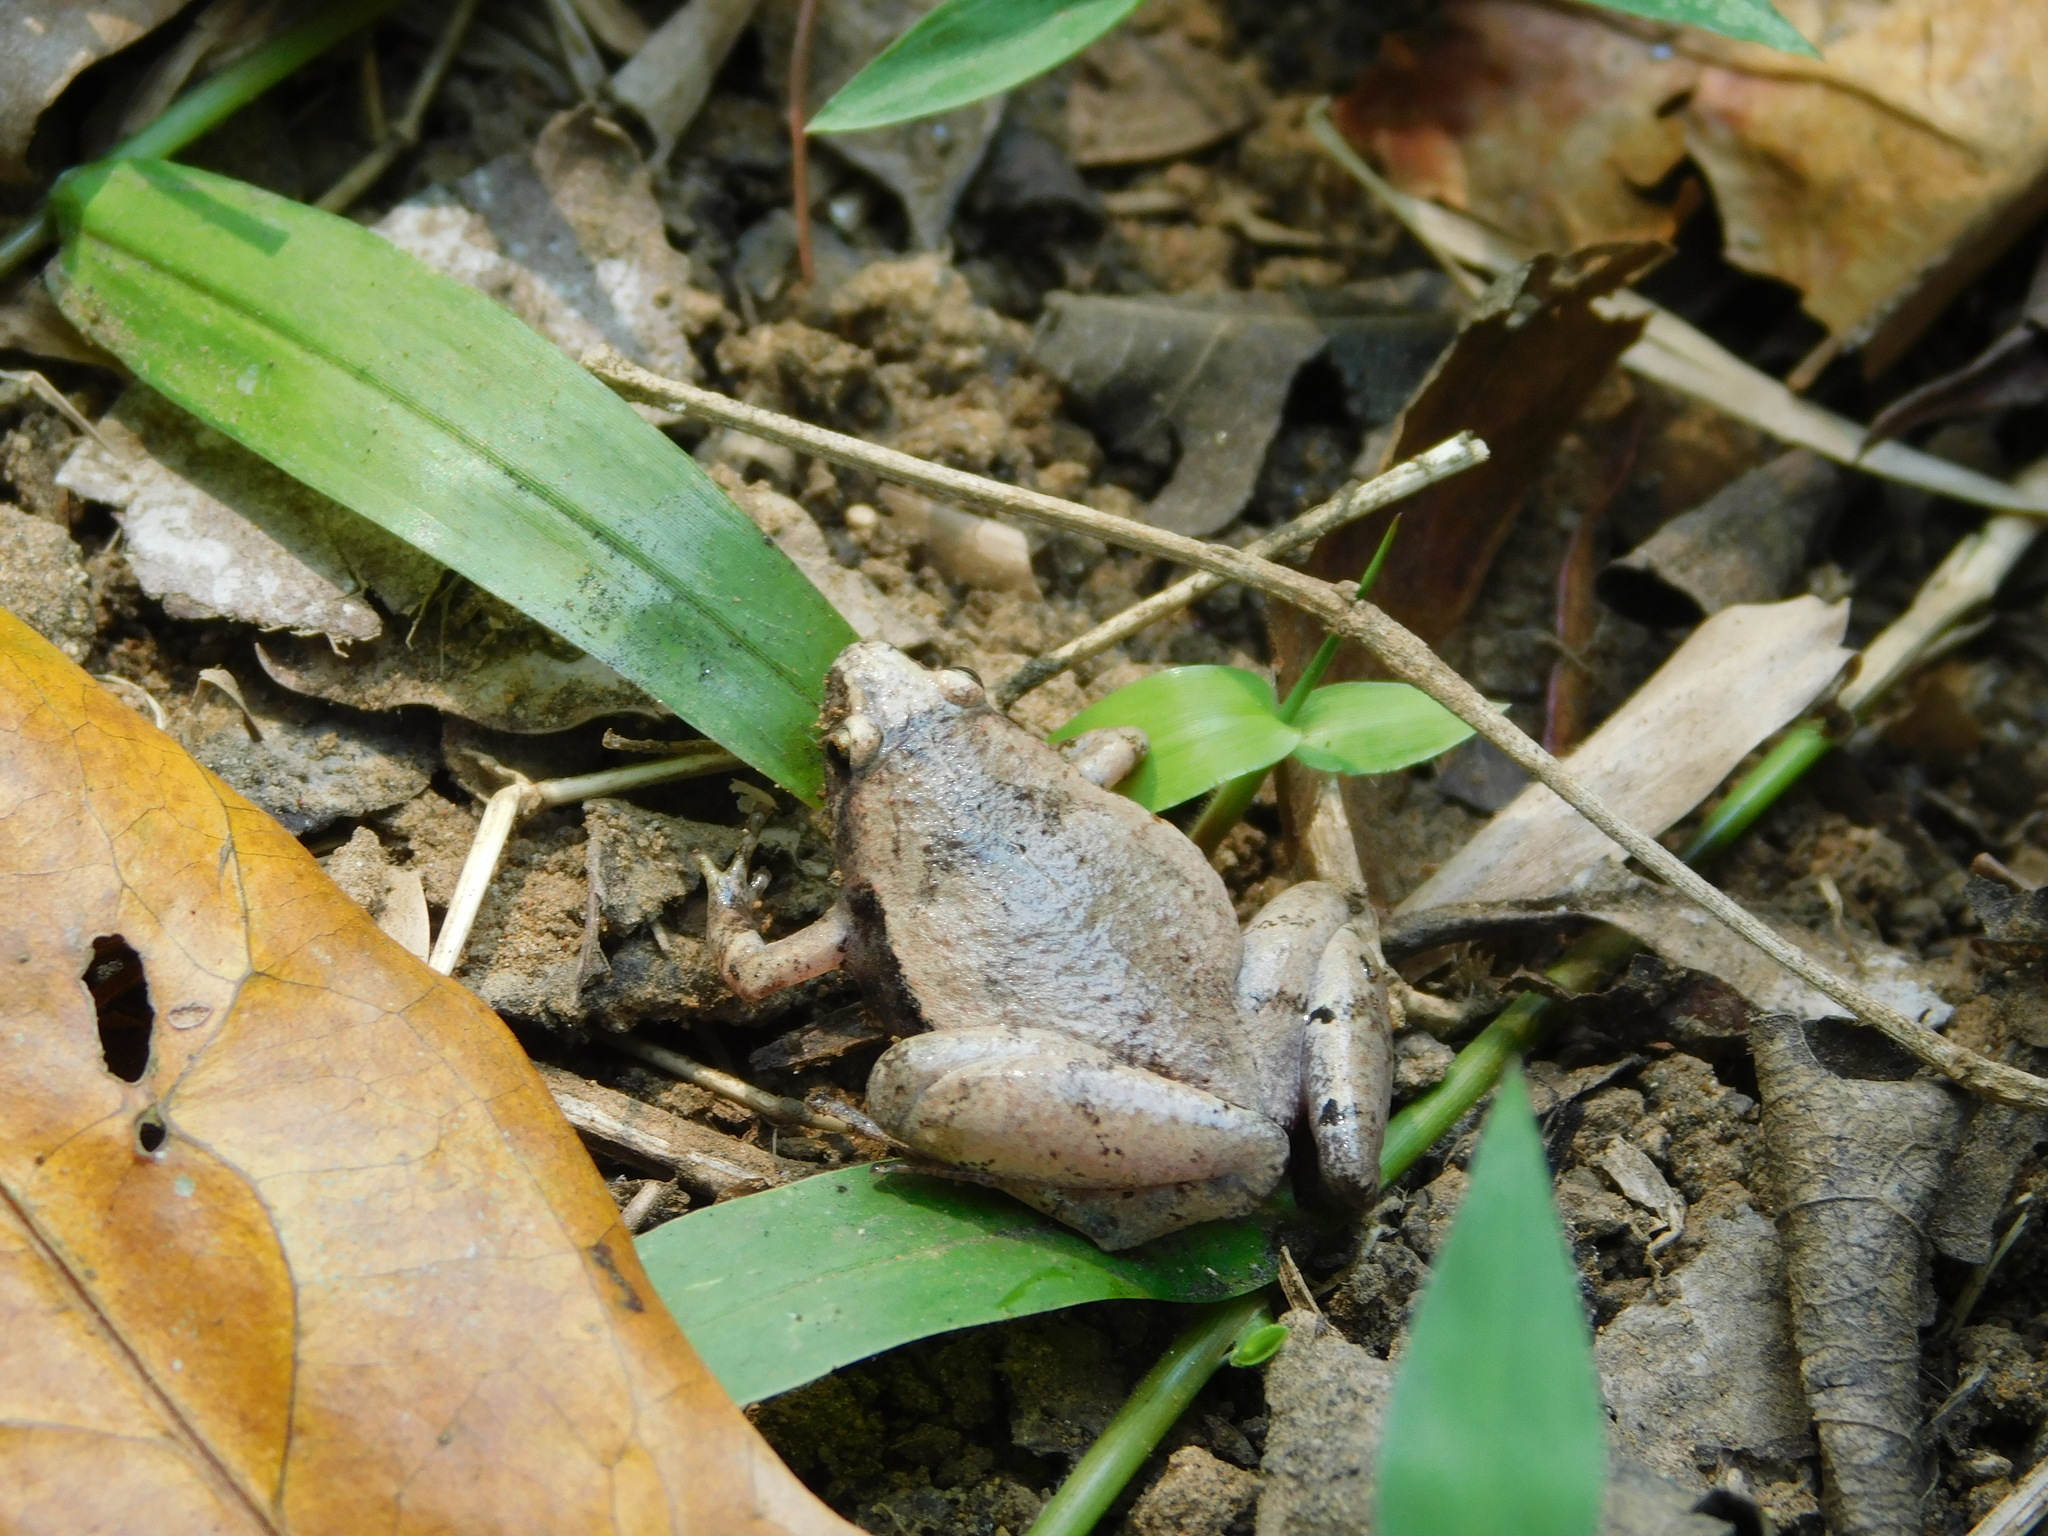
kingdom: Animalia
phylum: Chordata
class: Amphibia
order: Anura
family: Microhylidae
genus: Microhyla
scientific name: Microhyla achatina
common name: Javan chorus frog
